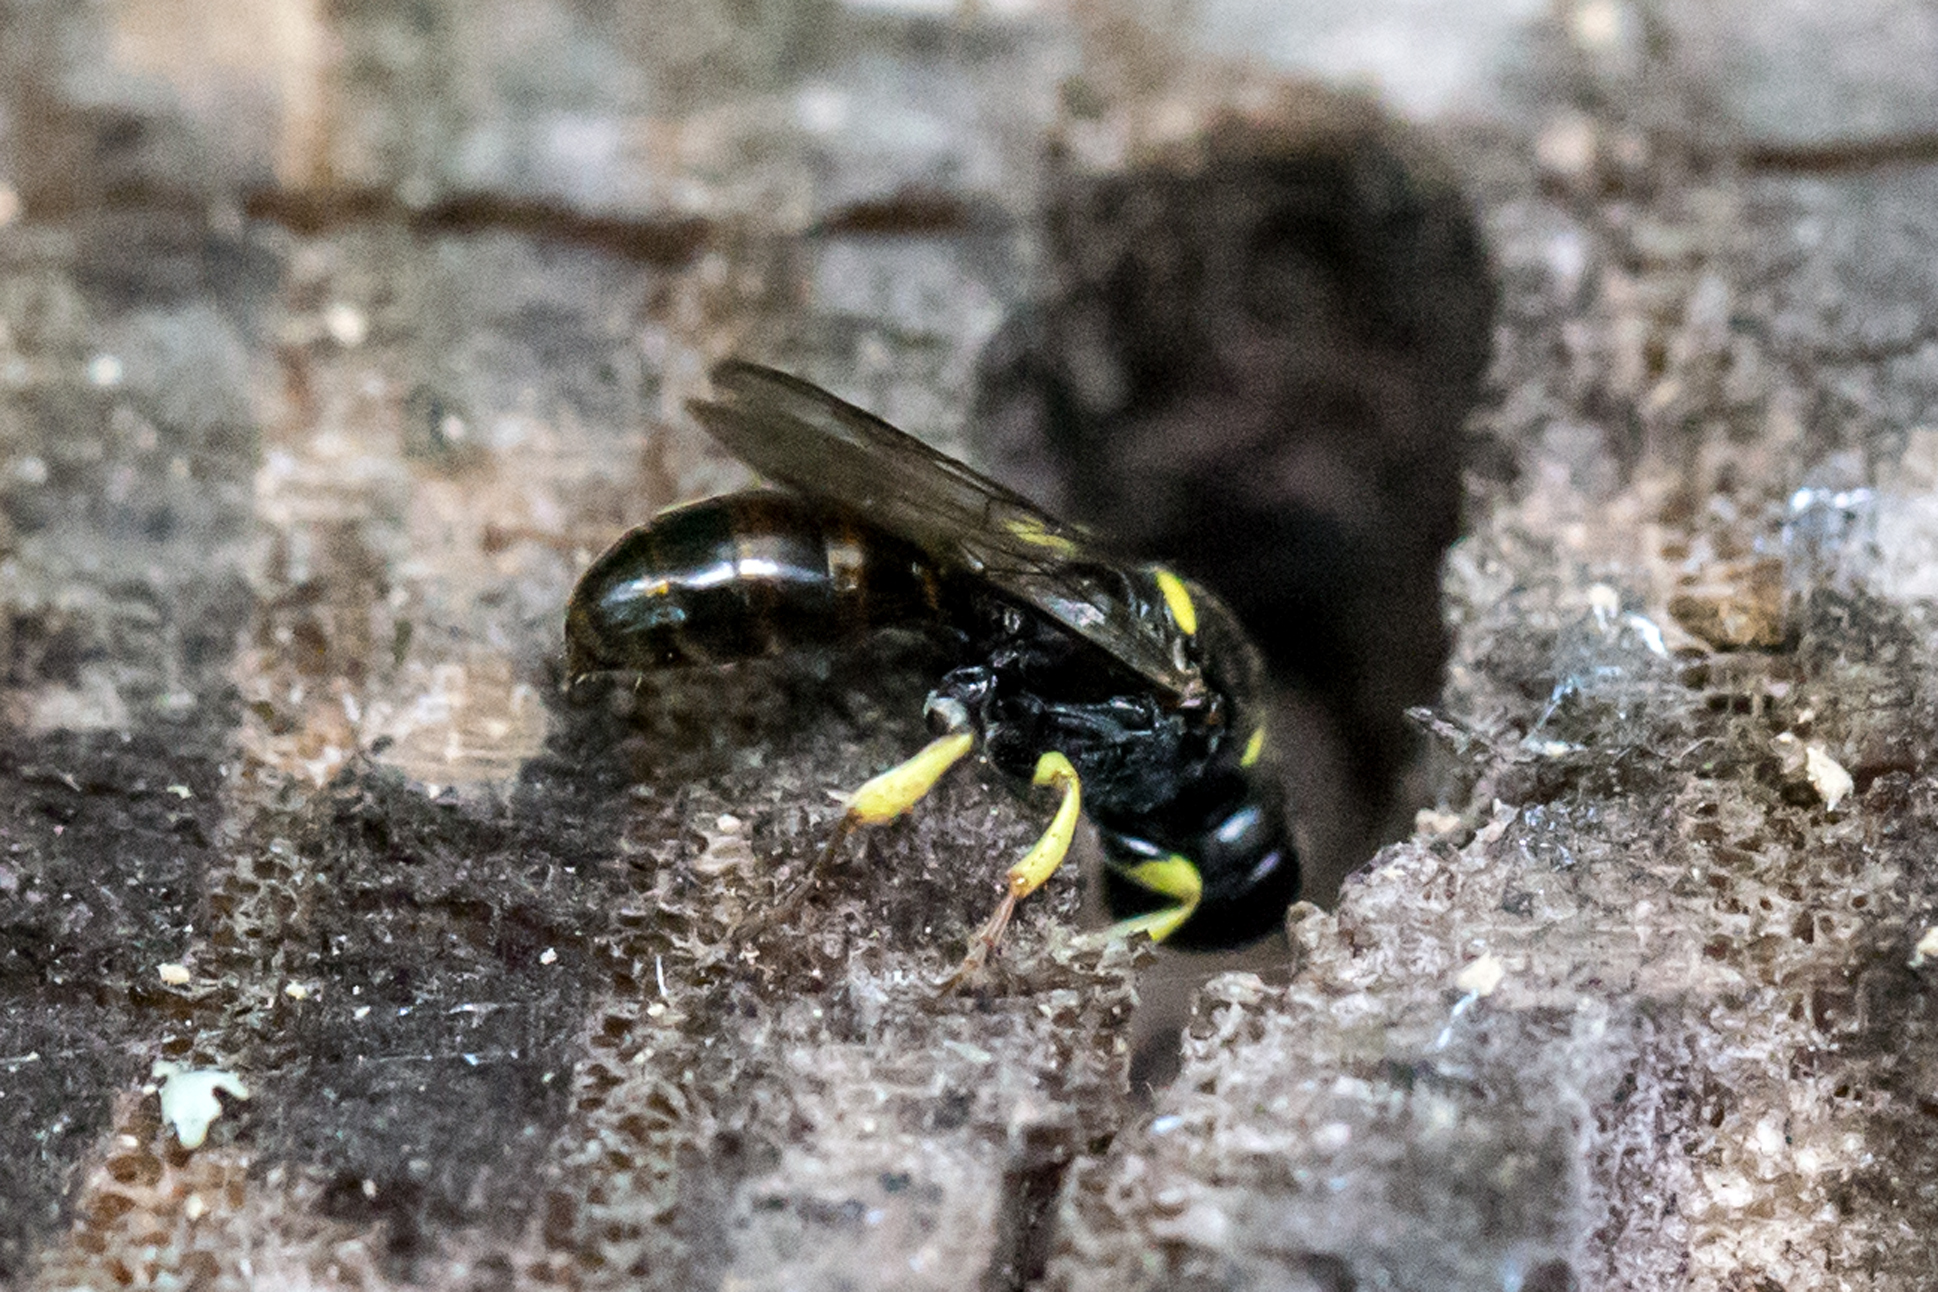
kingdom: Animalia
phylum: Arthropoda
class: Insecta
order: Hymenoptera
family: Crabronidae
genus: Crossocerus
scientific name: Crossocerus impressifrons
